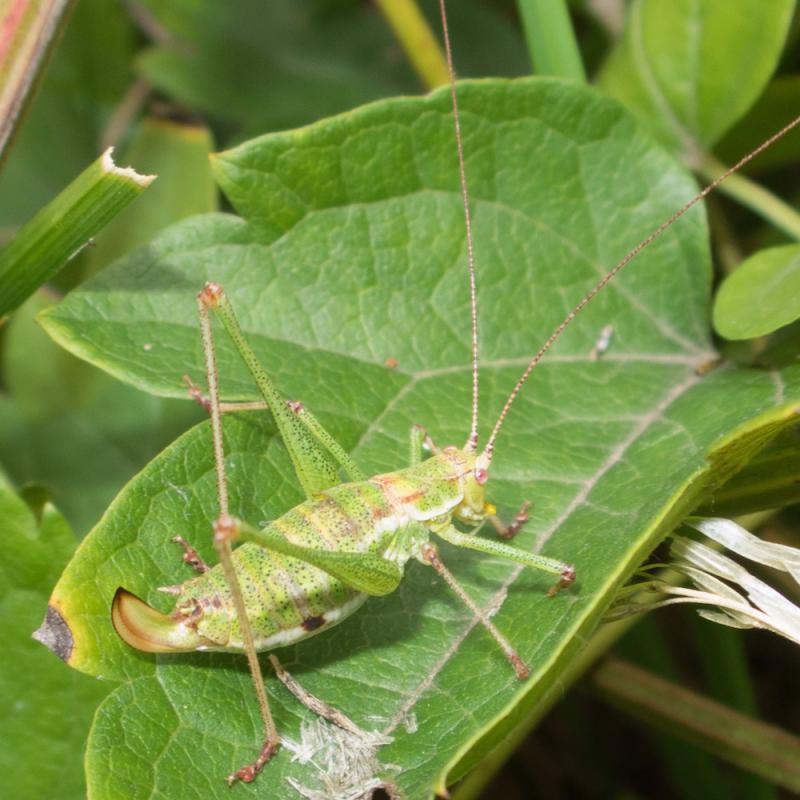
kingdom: Animalia
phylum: Arthropoda
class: Insecta
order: Orthoptera
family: Tettigoniidae
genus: Leptophyes
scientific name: Leptophyes albovittata
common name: Striped bush-cricket
